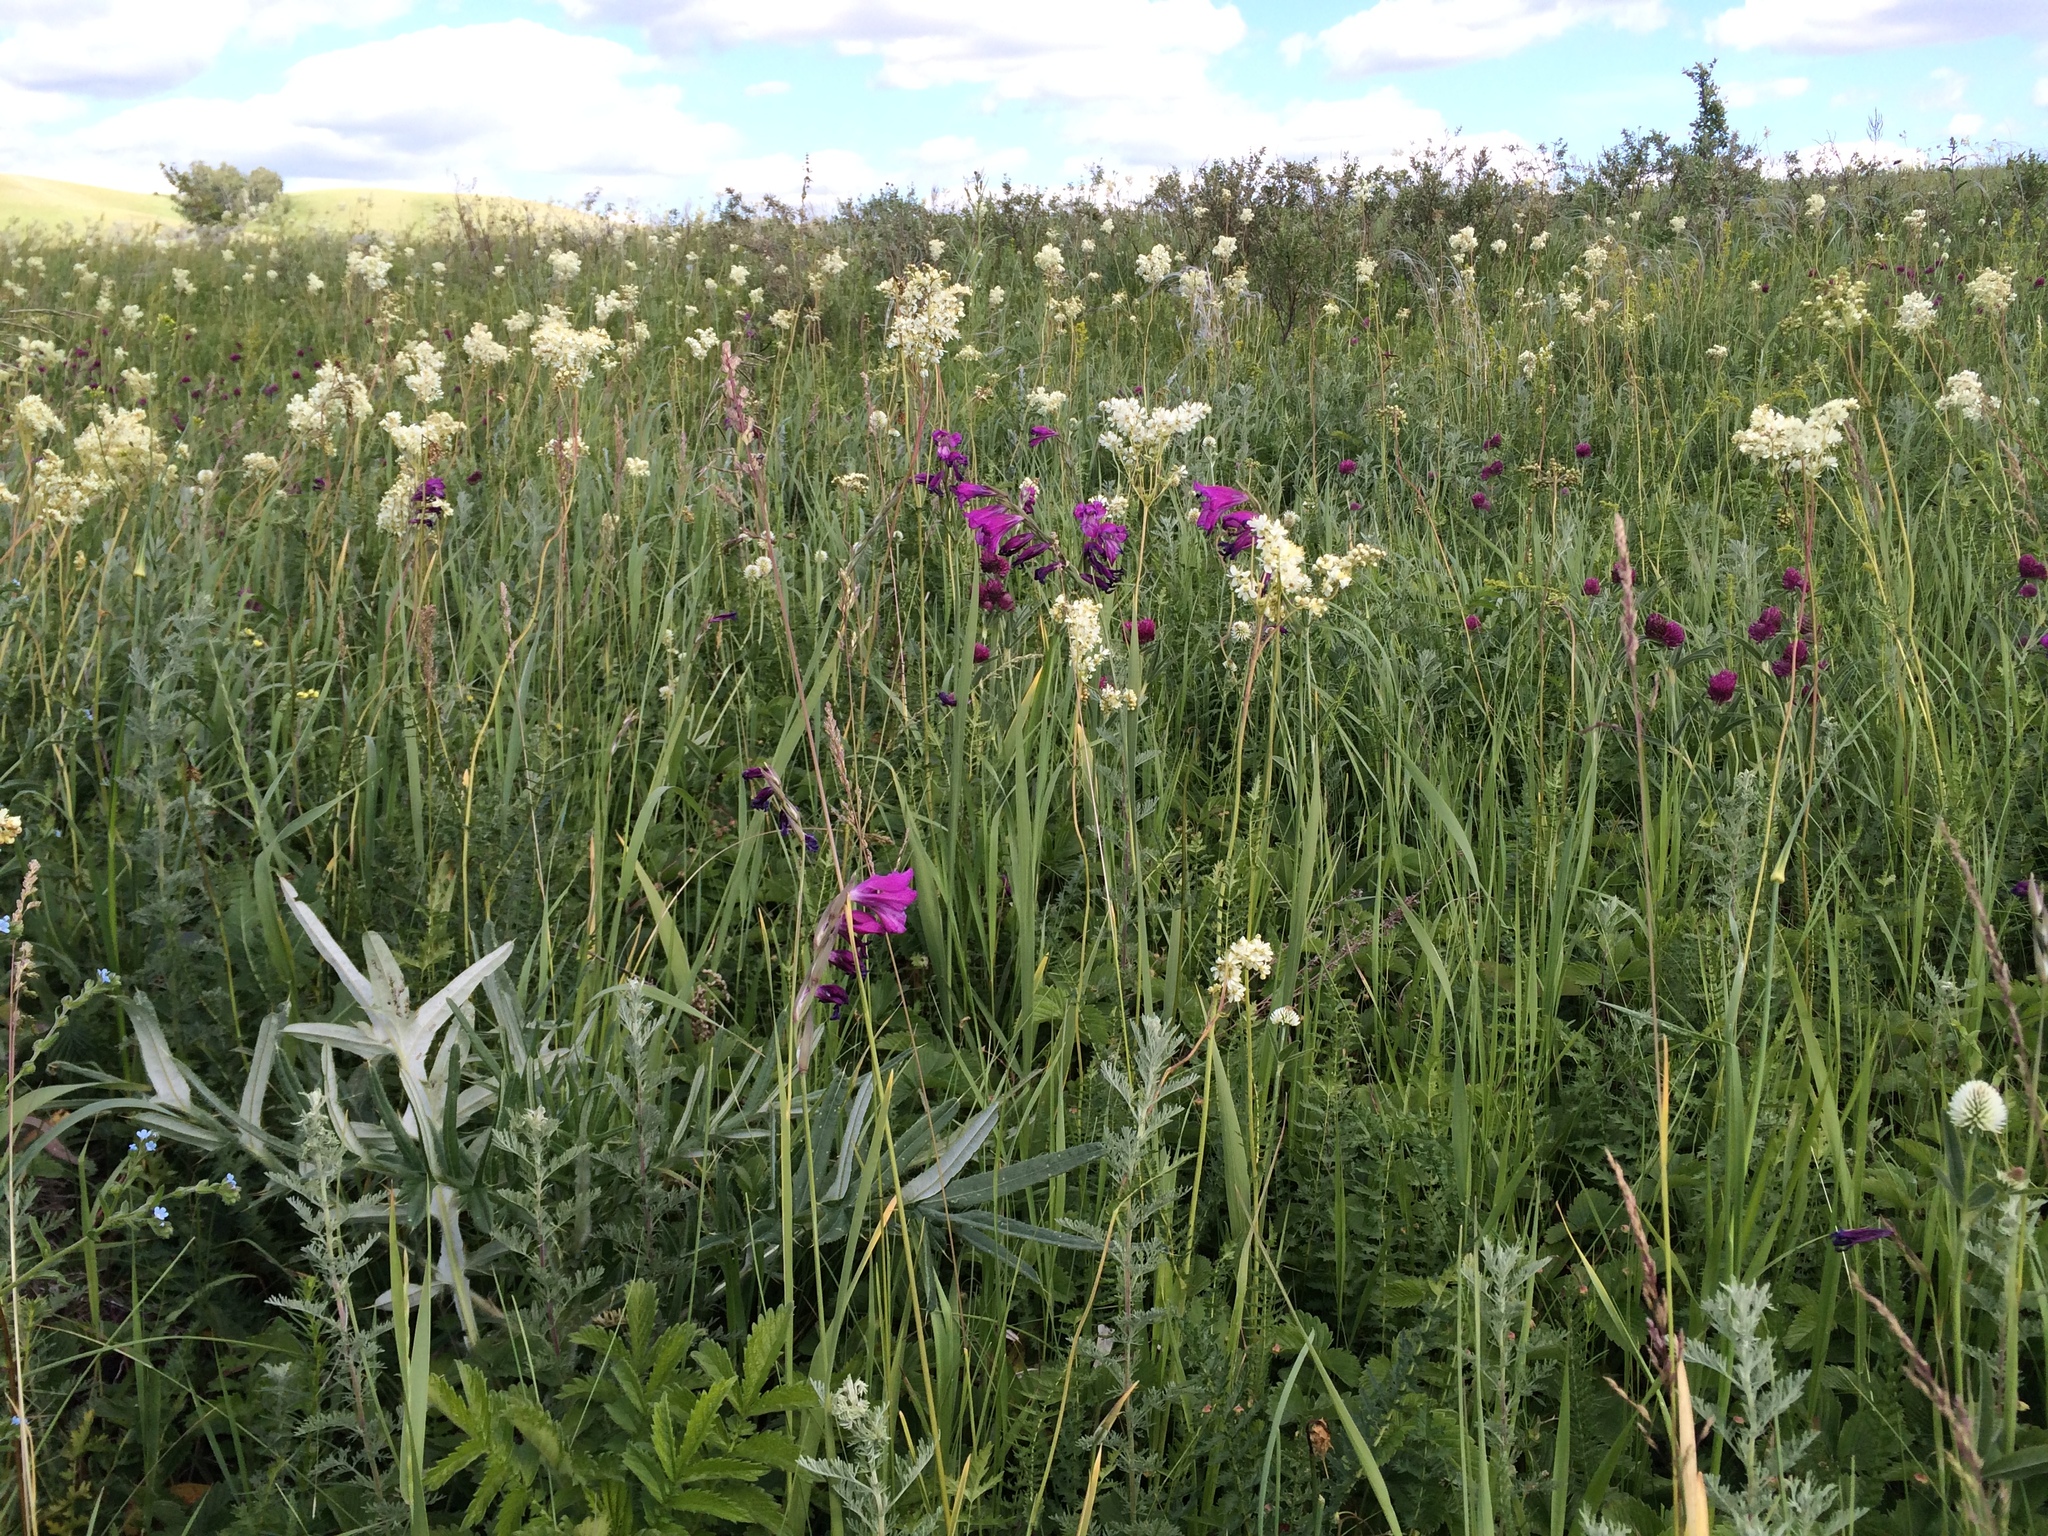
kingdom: Plantae
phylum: Tracheophyta
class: Liliopsida
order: Asparagales
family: Iridaceae
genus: Gladiolus
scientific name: Gladiolus tenuis
